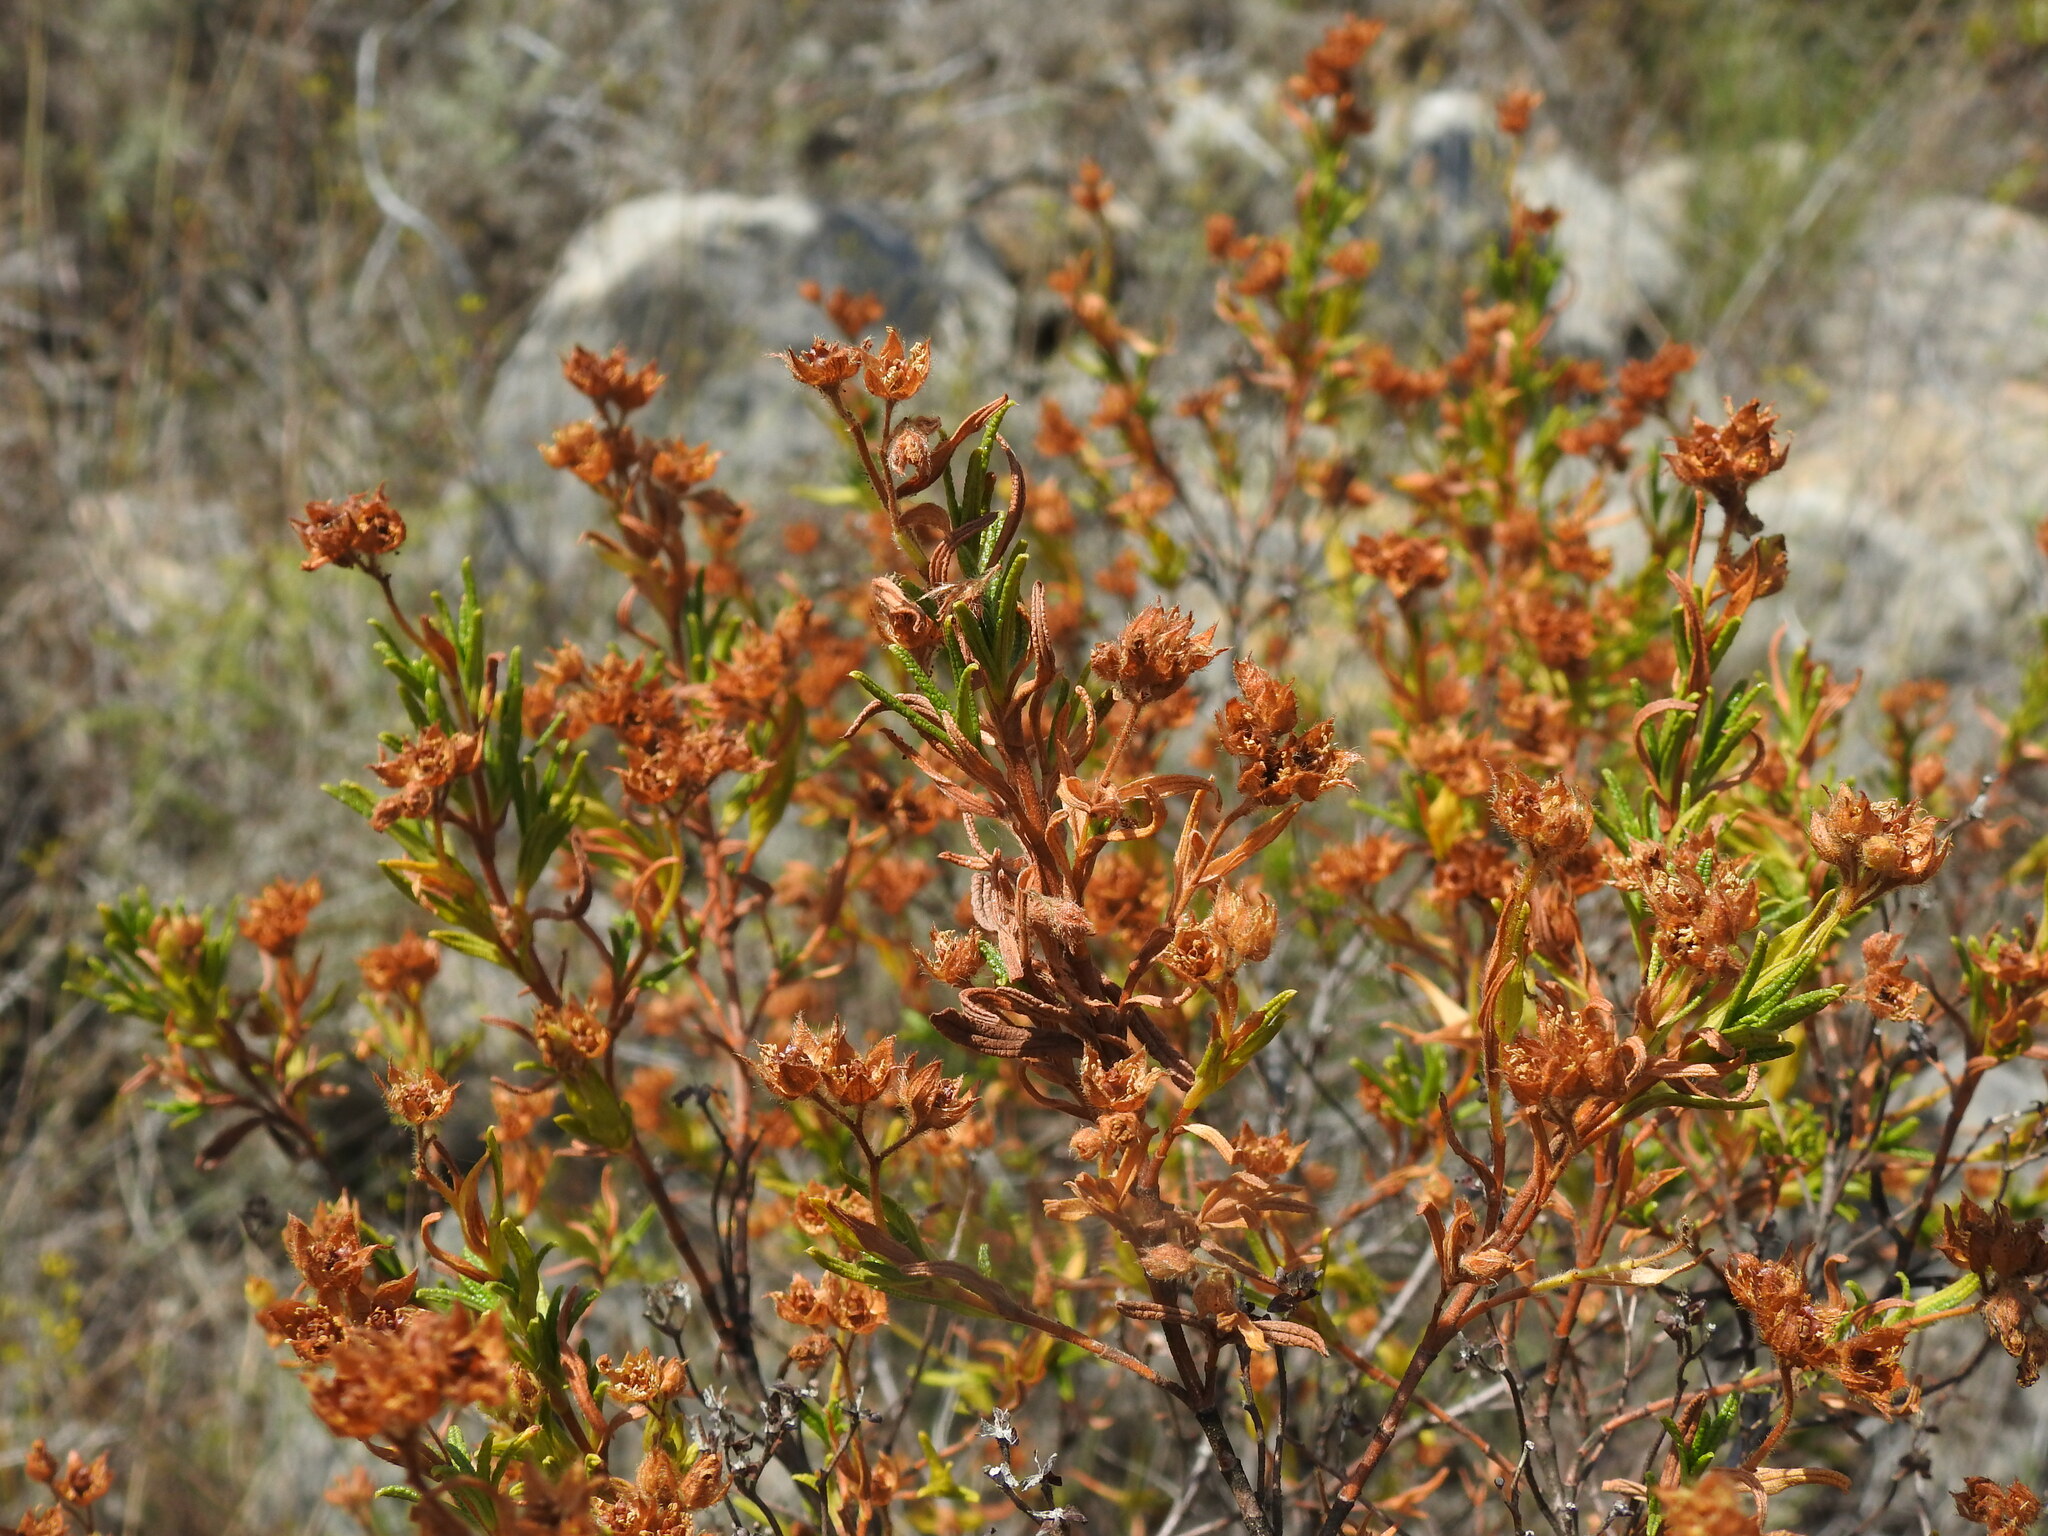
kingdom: Plantae
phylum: Tracheophyta
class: Magnoliopsida
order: Malvales
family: Cistaceae
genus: Cistus
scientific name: Cistus monspeliensis
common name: Montpelier cistus
